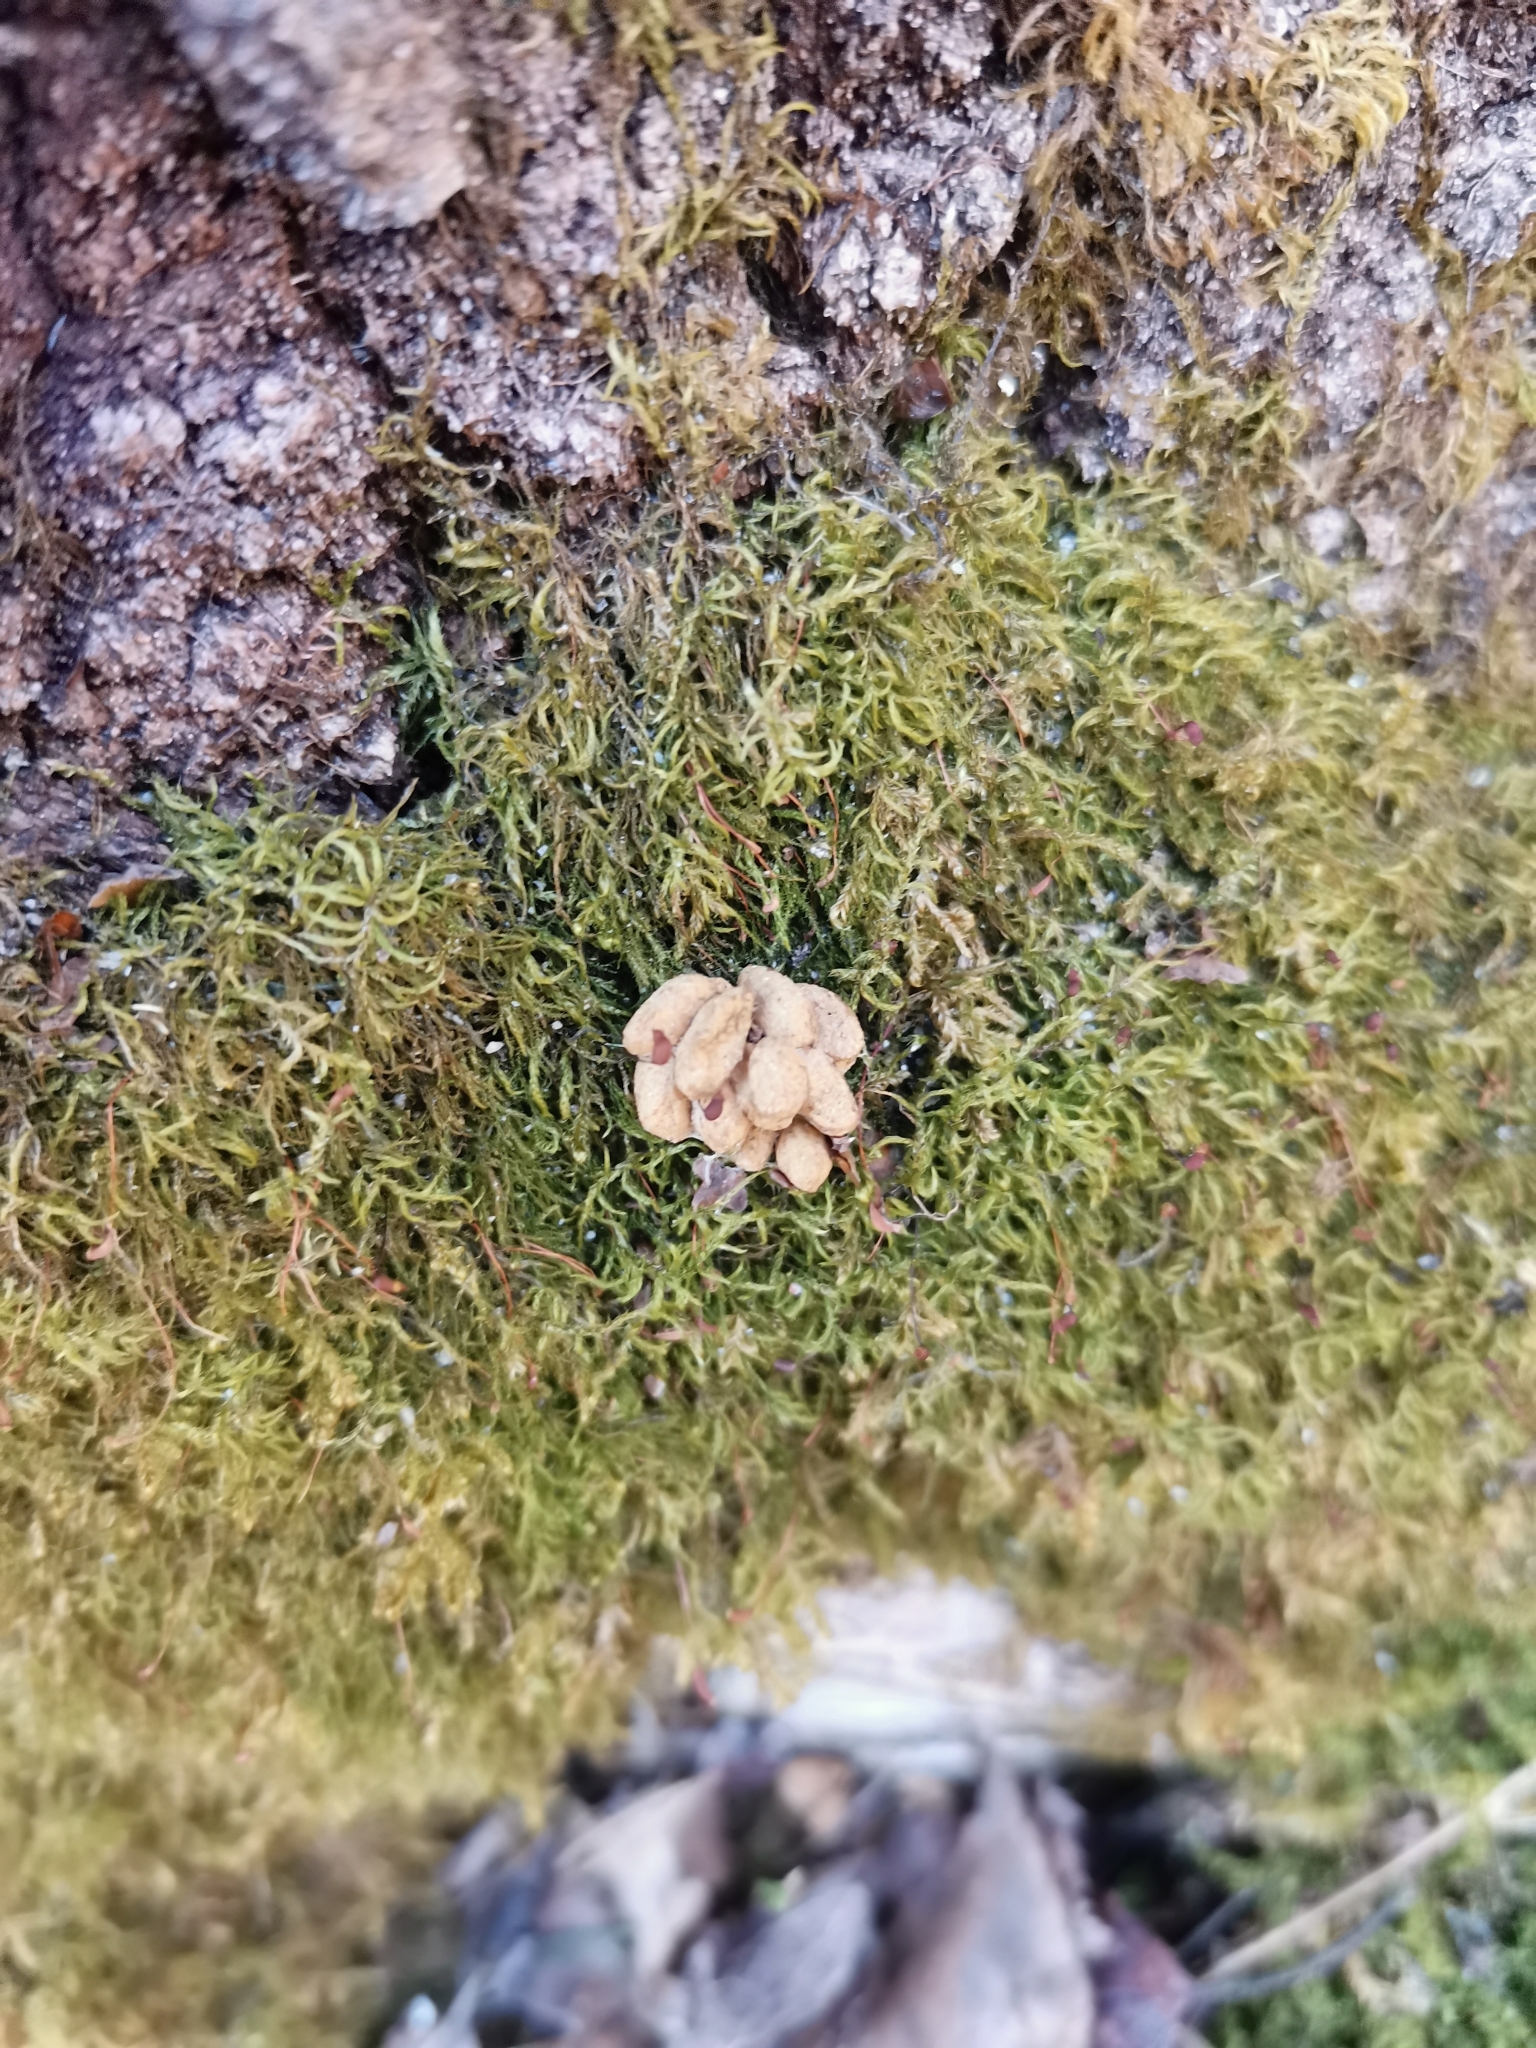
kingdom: Animalia
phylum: Chordata
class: Mammalia
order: Rodentia
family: Sciuridae
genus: Pteromys
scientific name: Pteromys volans
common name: Siberian flying squirrel
